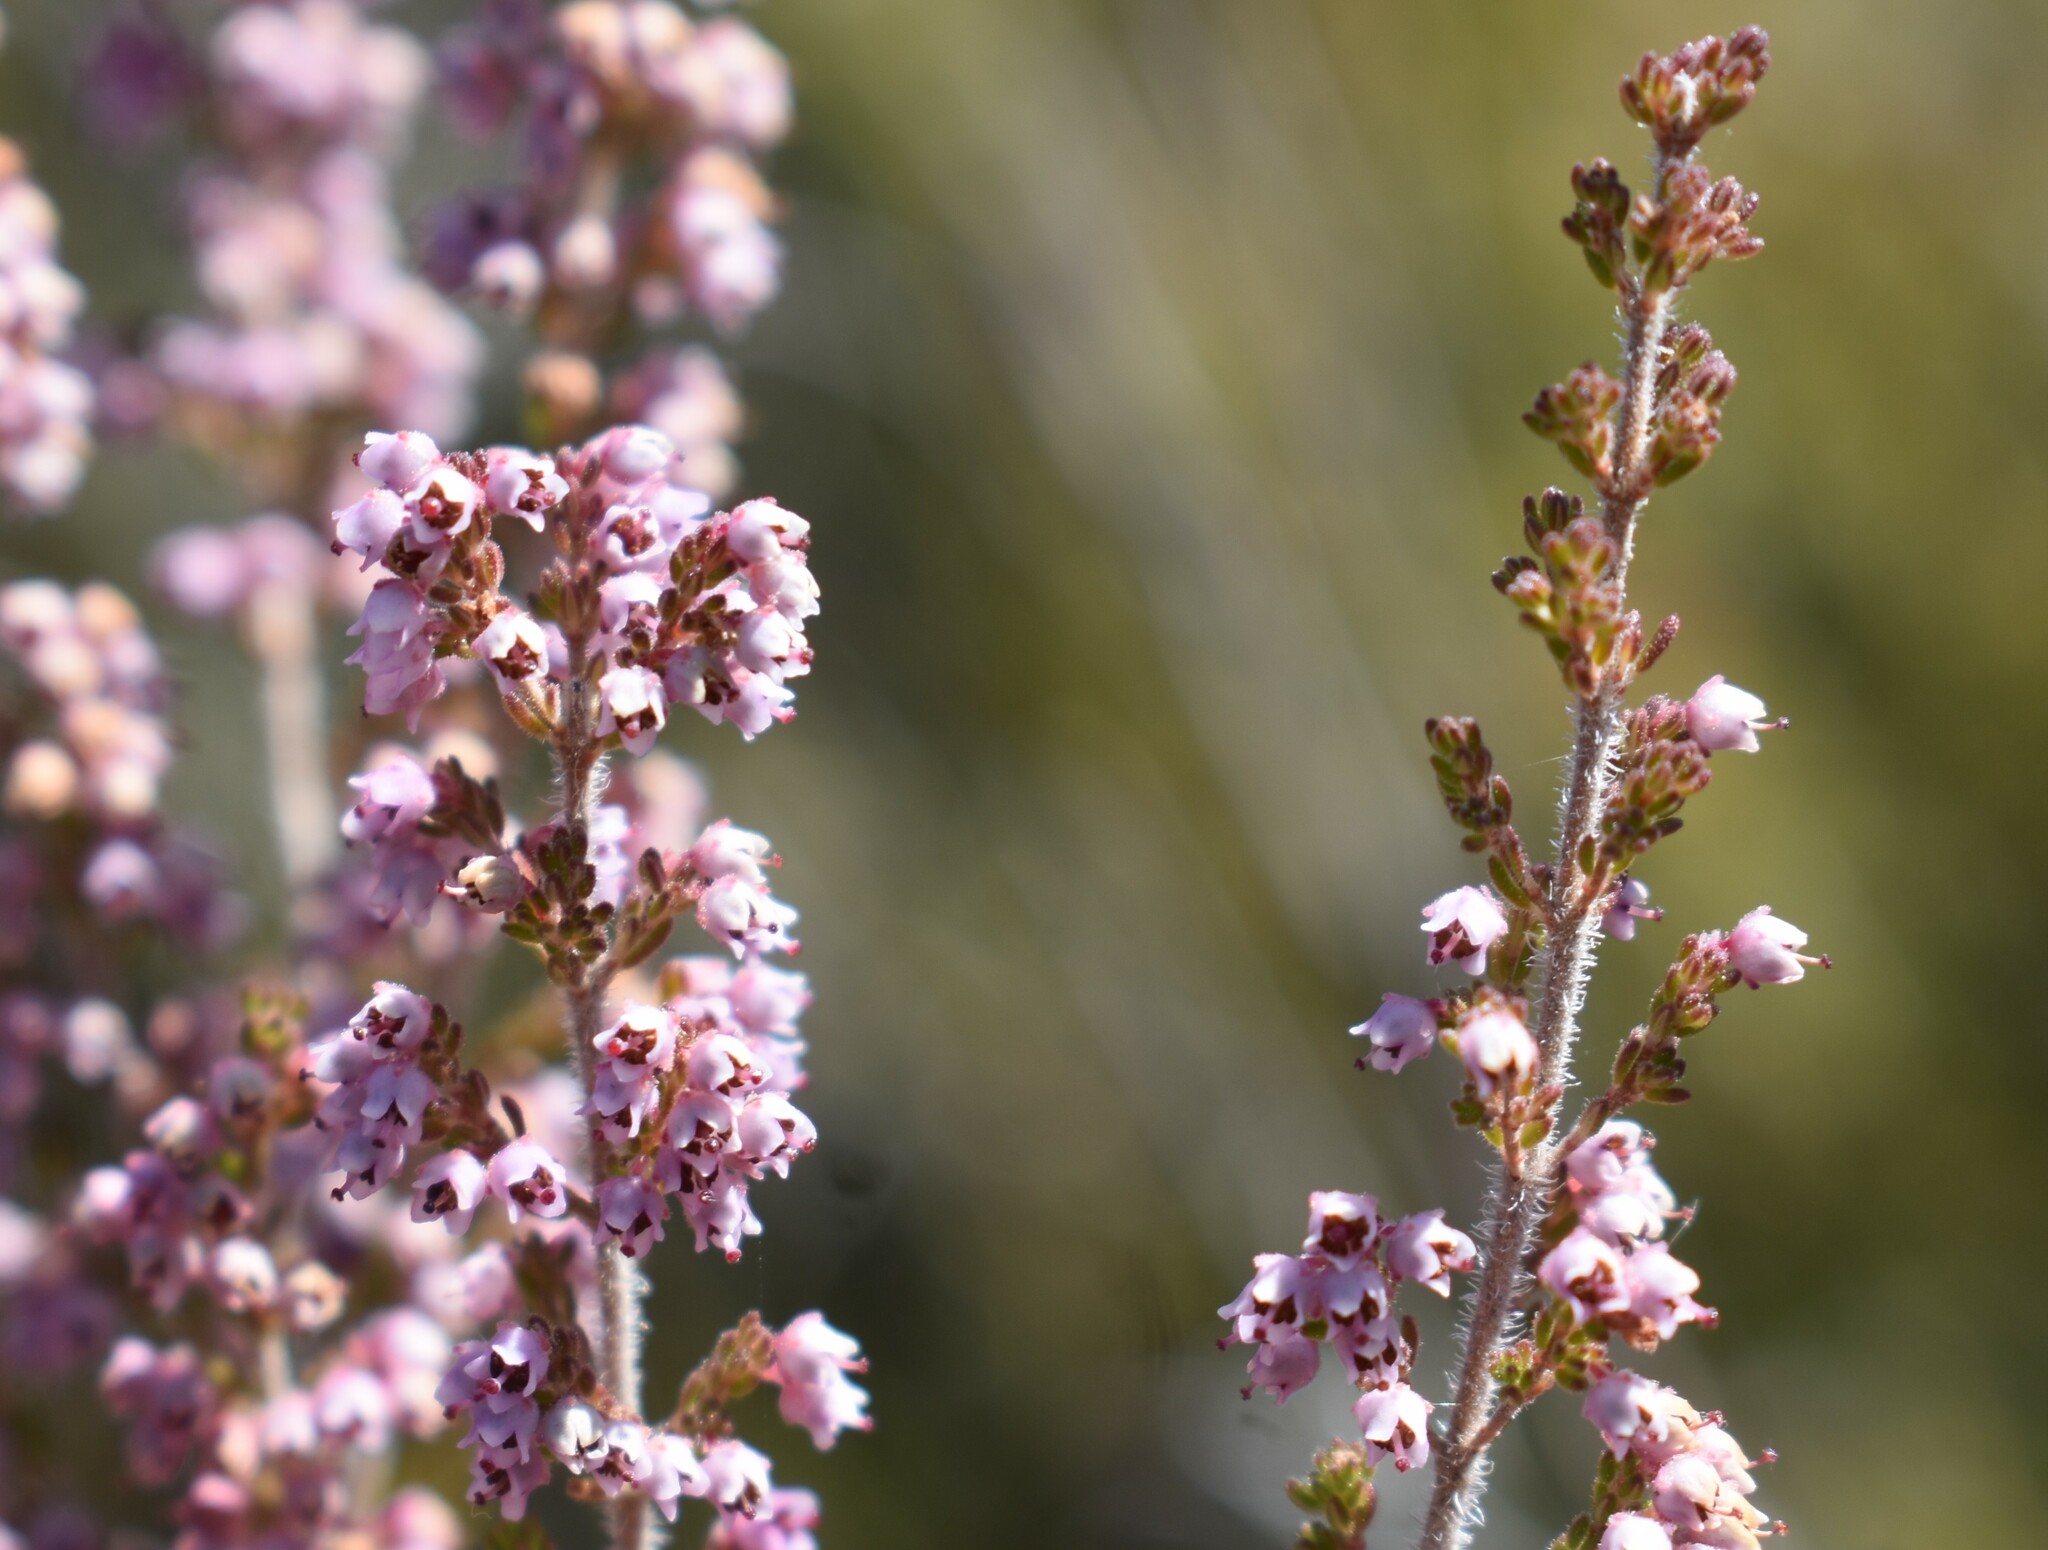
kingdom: Plantae
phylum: Tracheophyta
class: Magnoliopsida
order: Ericales
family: Ericaceae
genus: Erica
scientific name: Erica copiosa
